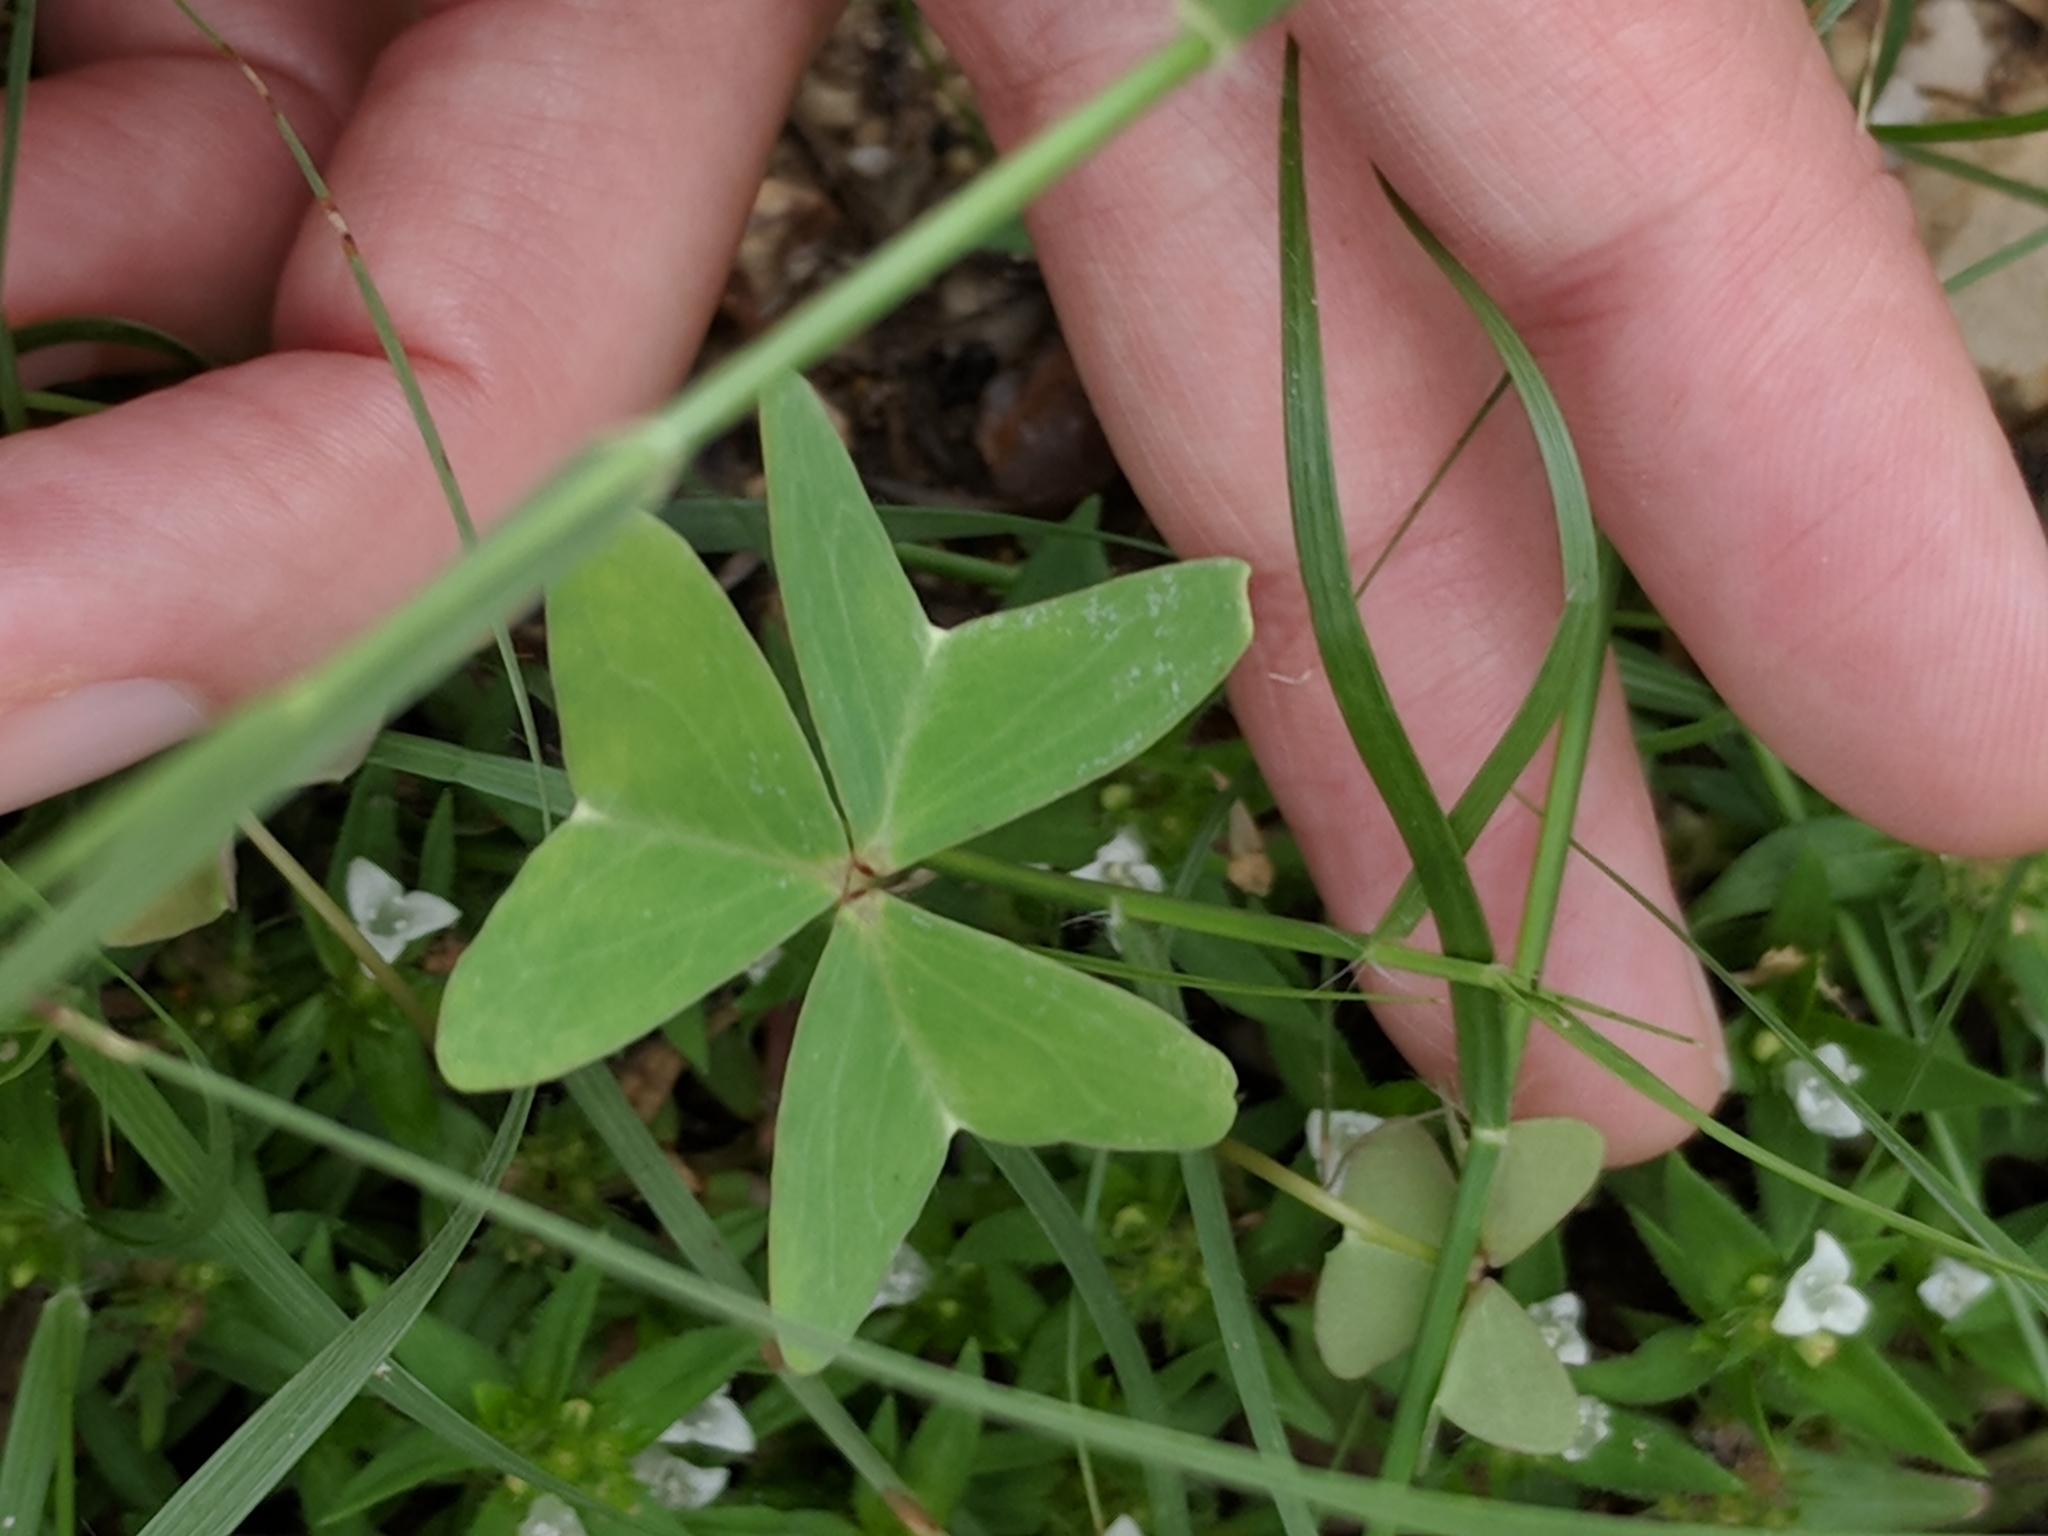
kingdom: Plantae
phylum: Tracheophyta
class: Magnoliopsida
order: Oxalidales
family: Oxalidaceae
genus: Oxalis
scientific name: Oxalis drummondii
